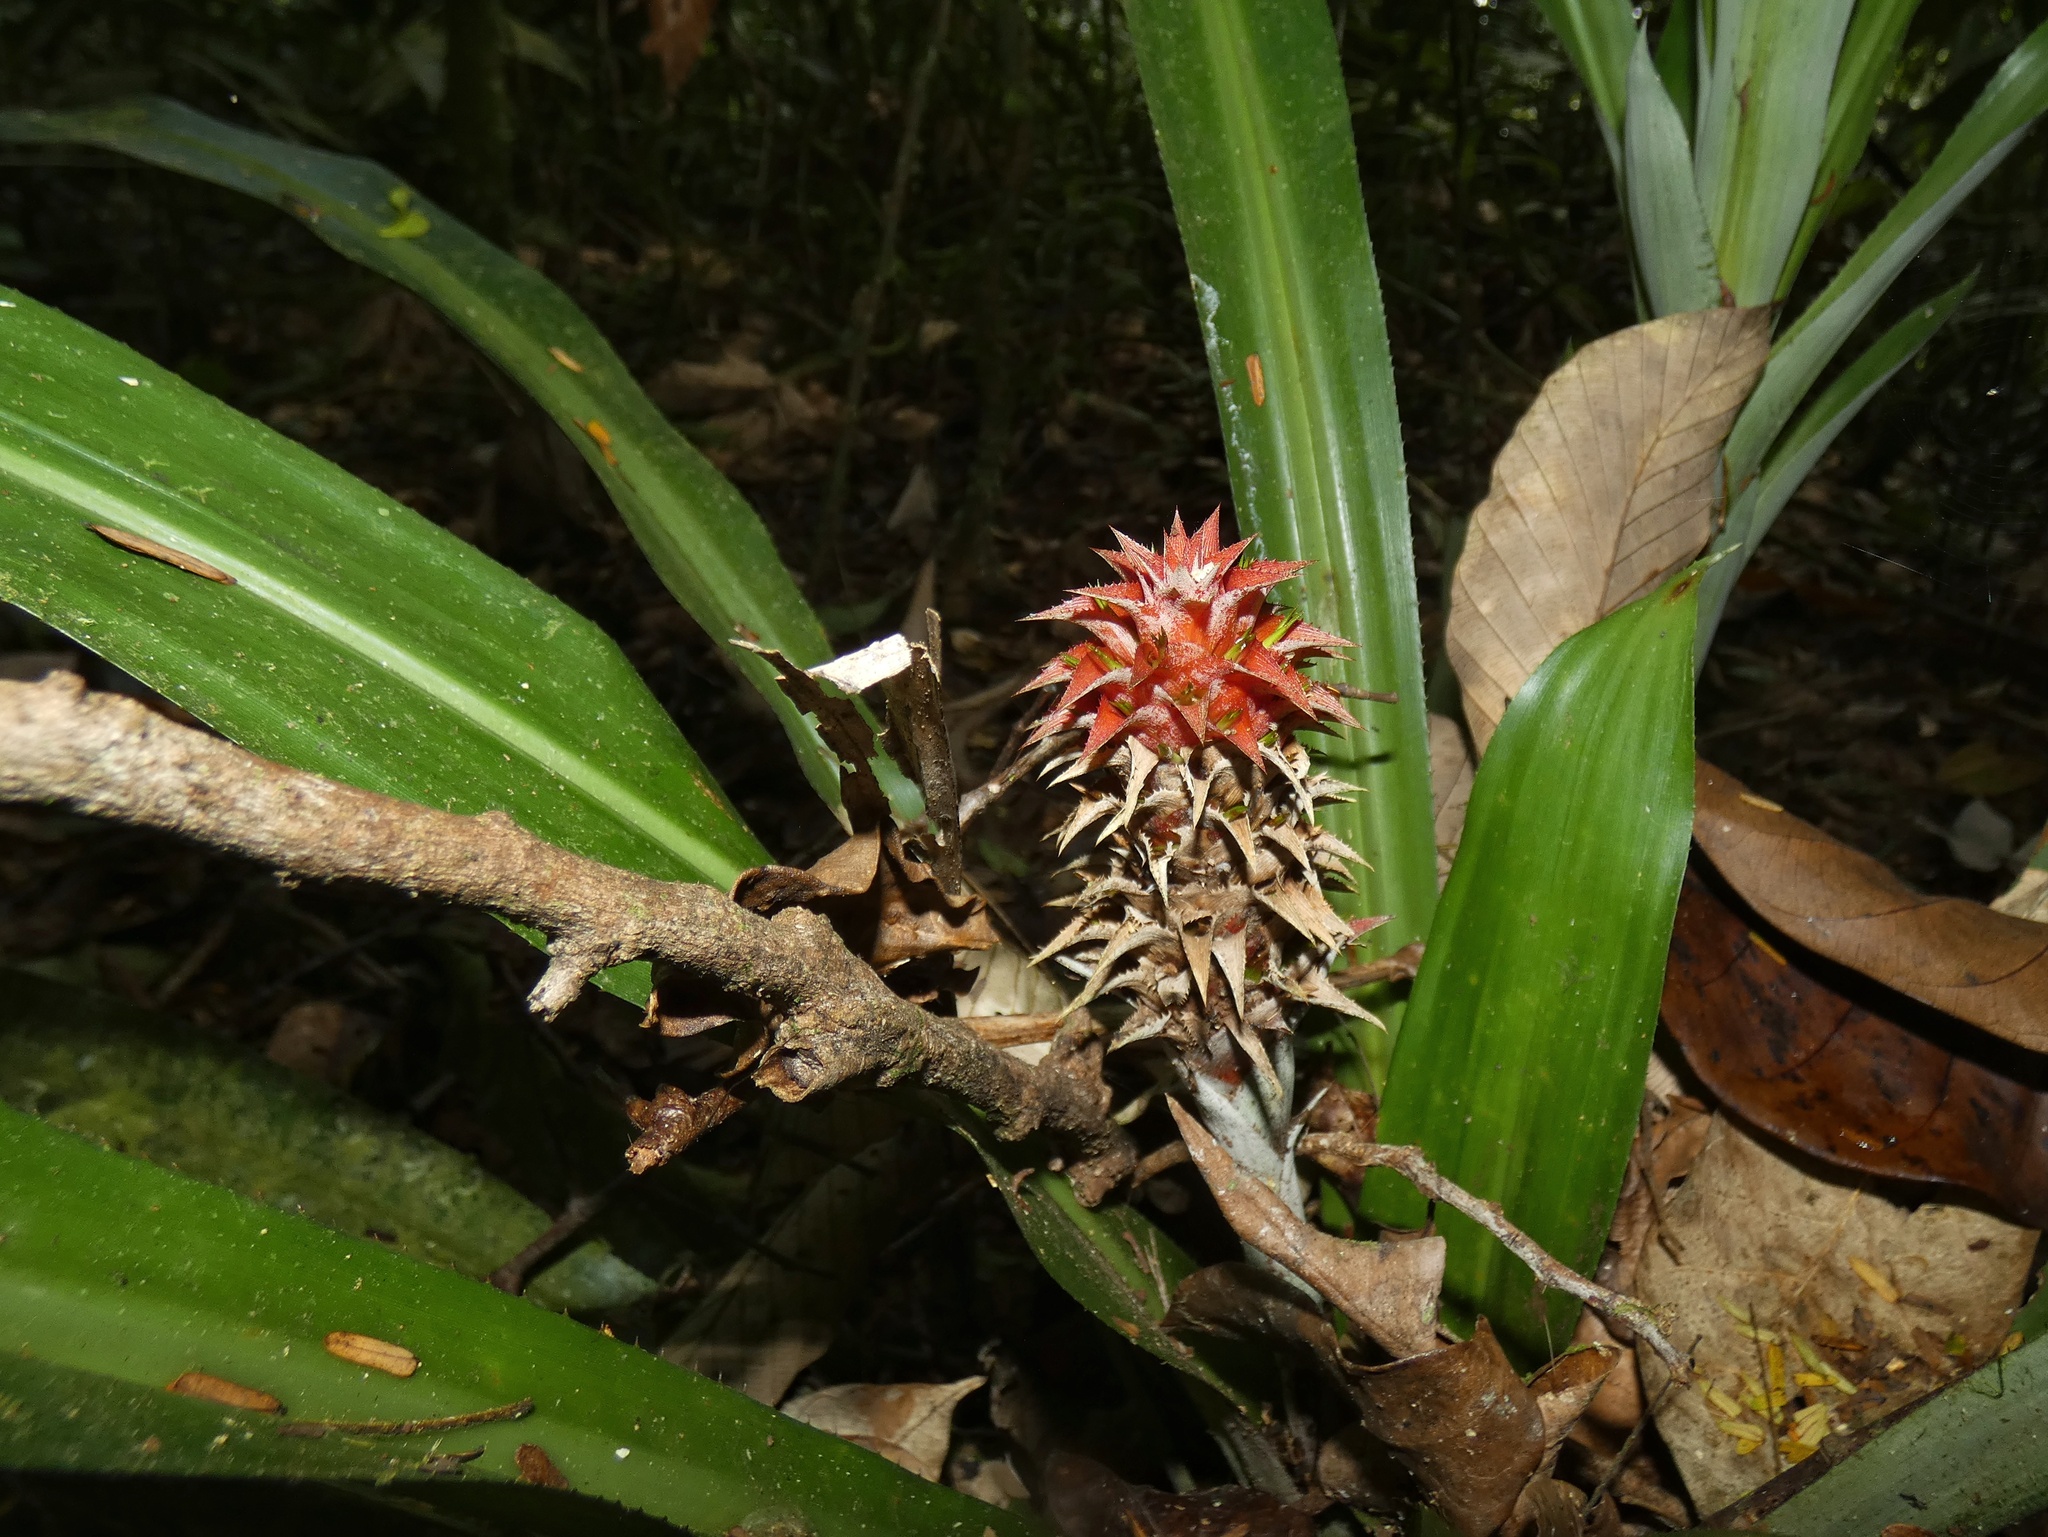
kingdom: Plantae
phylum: Tracheophyta
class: Liliopsida
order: Poales
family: Bromeliaceae
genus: Ronnbergia
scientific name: Ronnbergia veitchii
